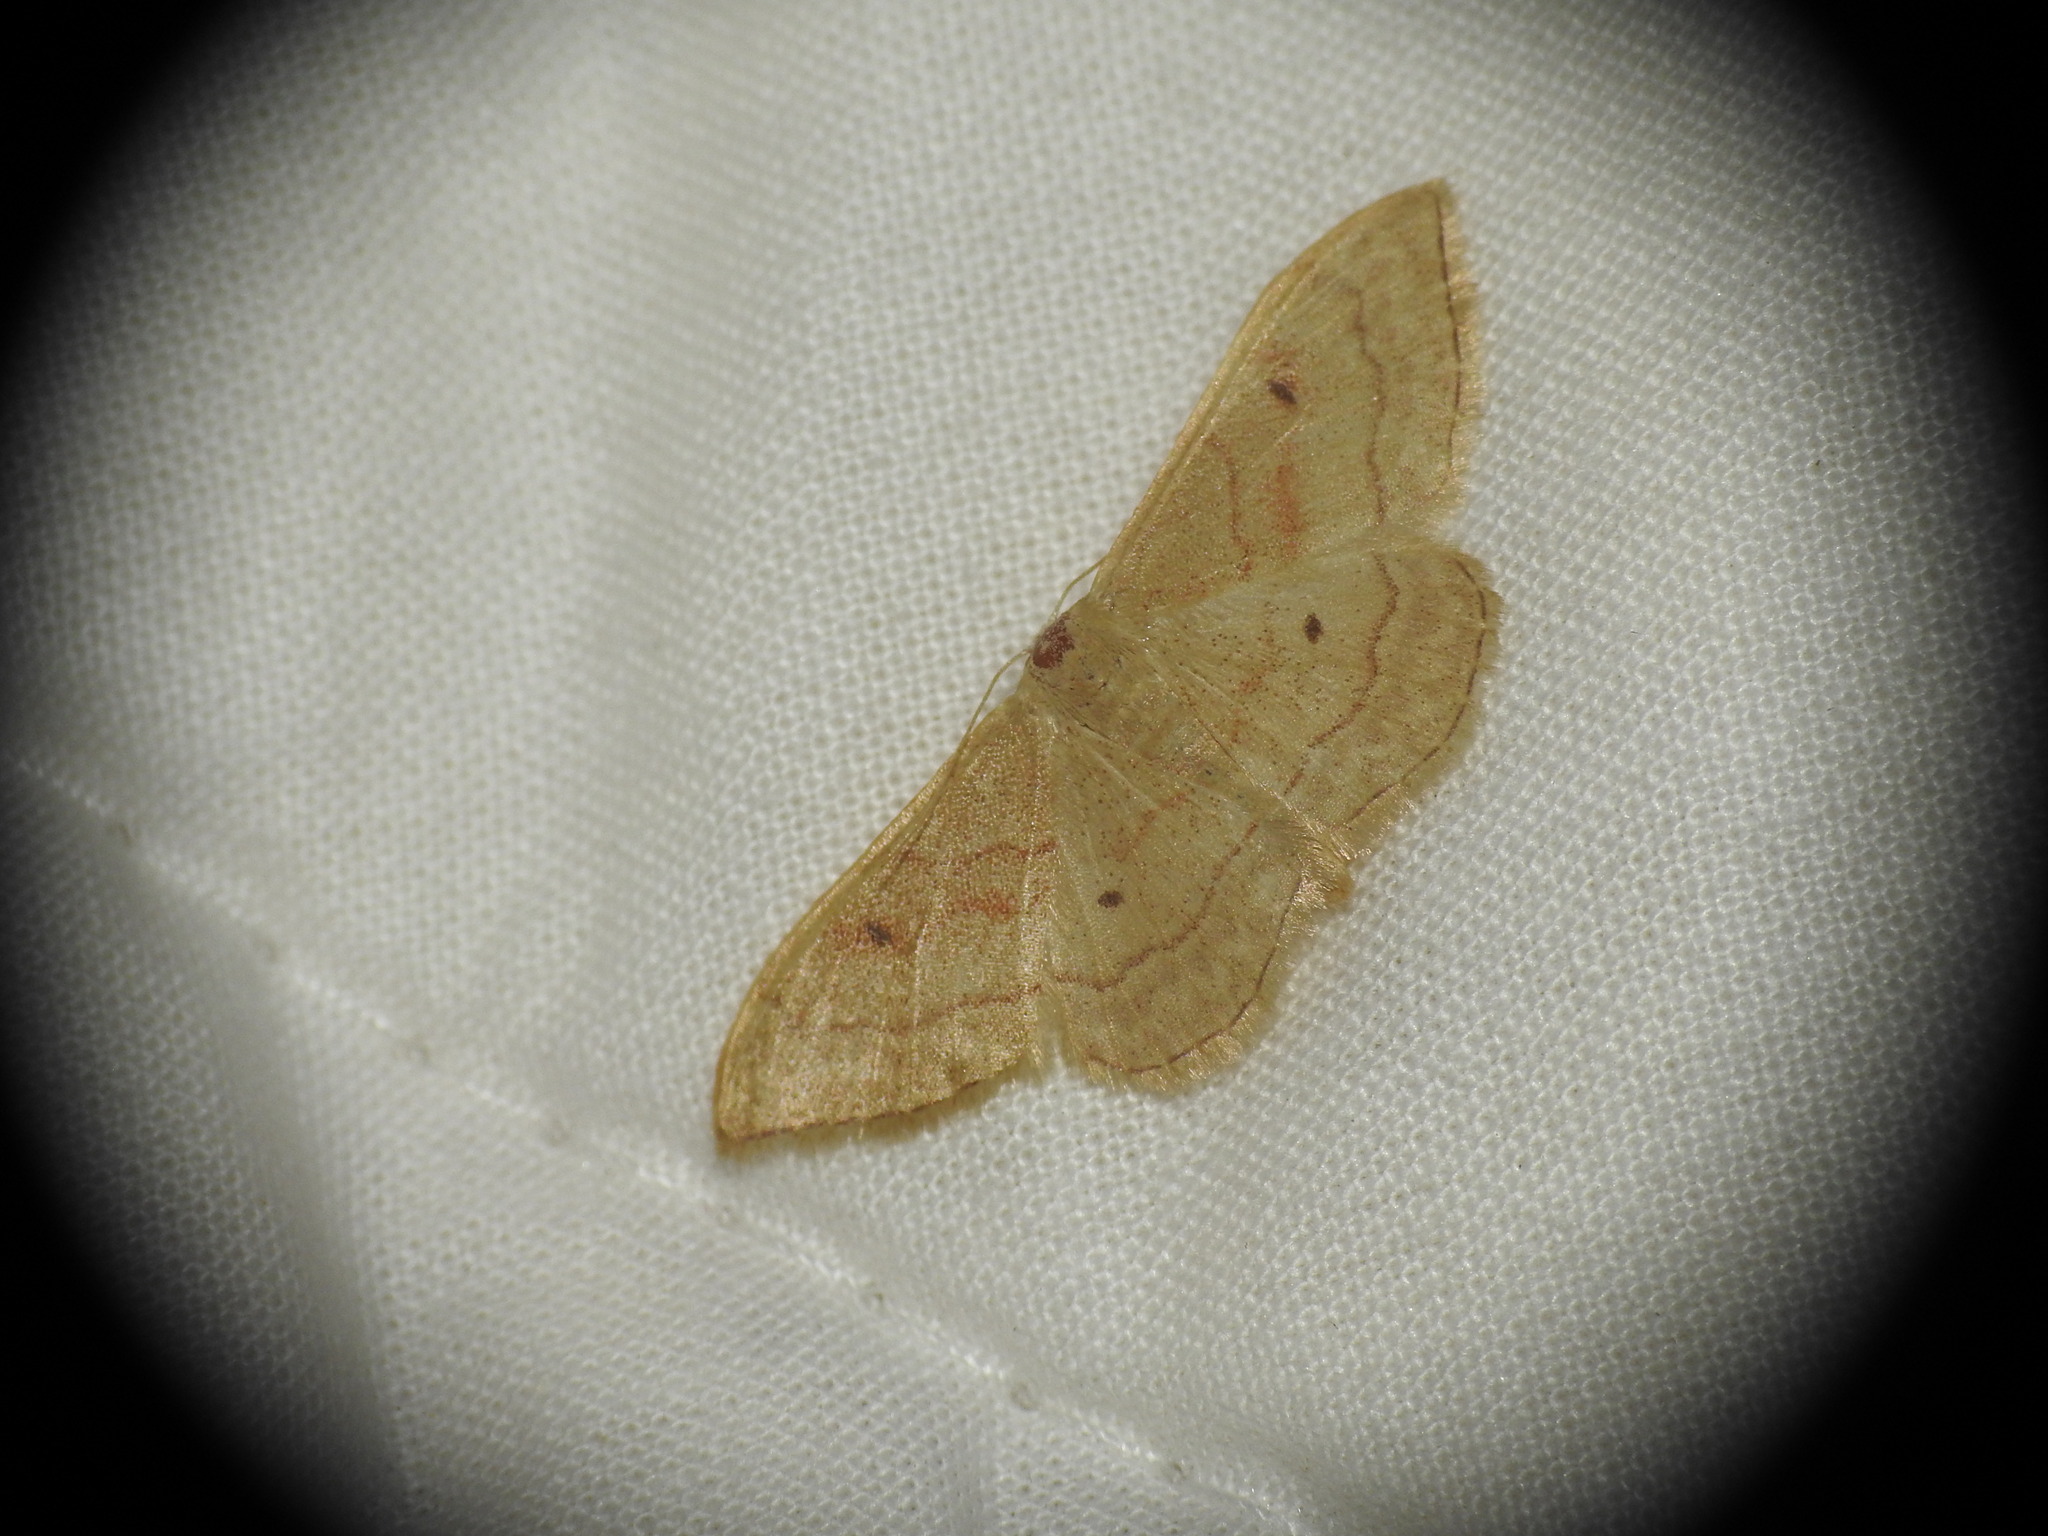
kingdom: Animalia
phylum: Arthropoda
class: Insecta
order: Lepidoptera
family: Geometridae
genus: Idaea
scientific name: Idaea bilinearia
